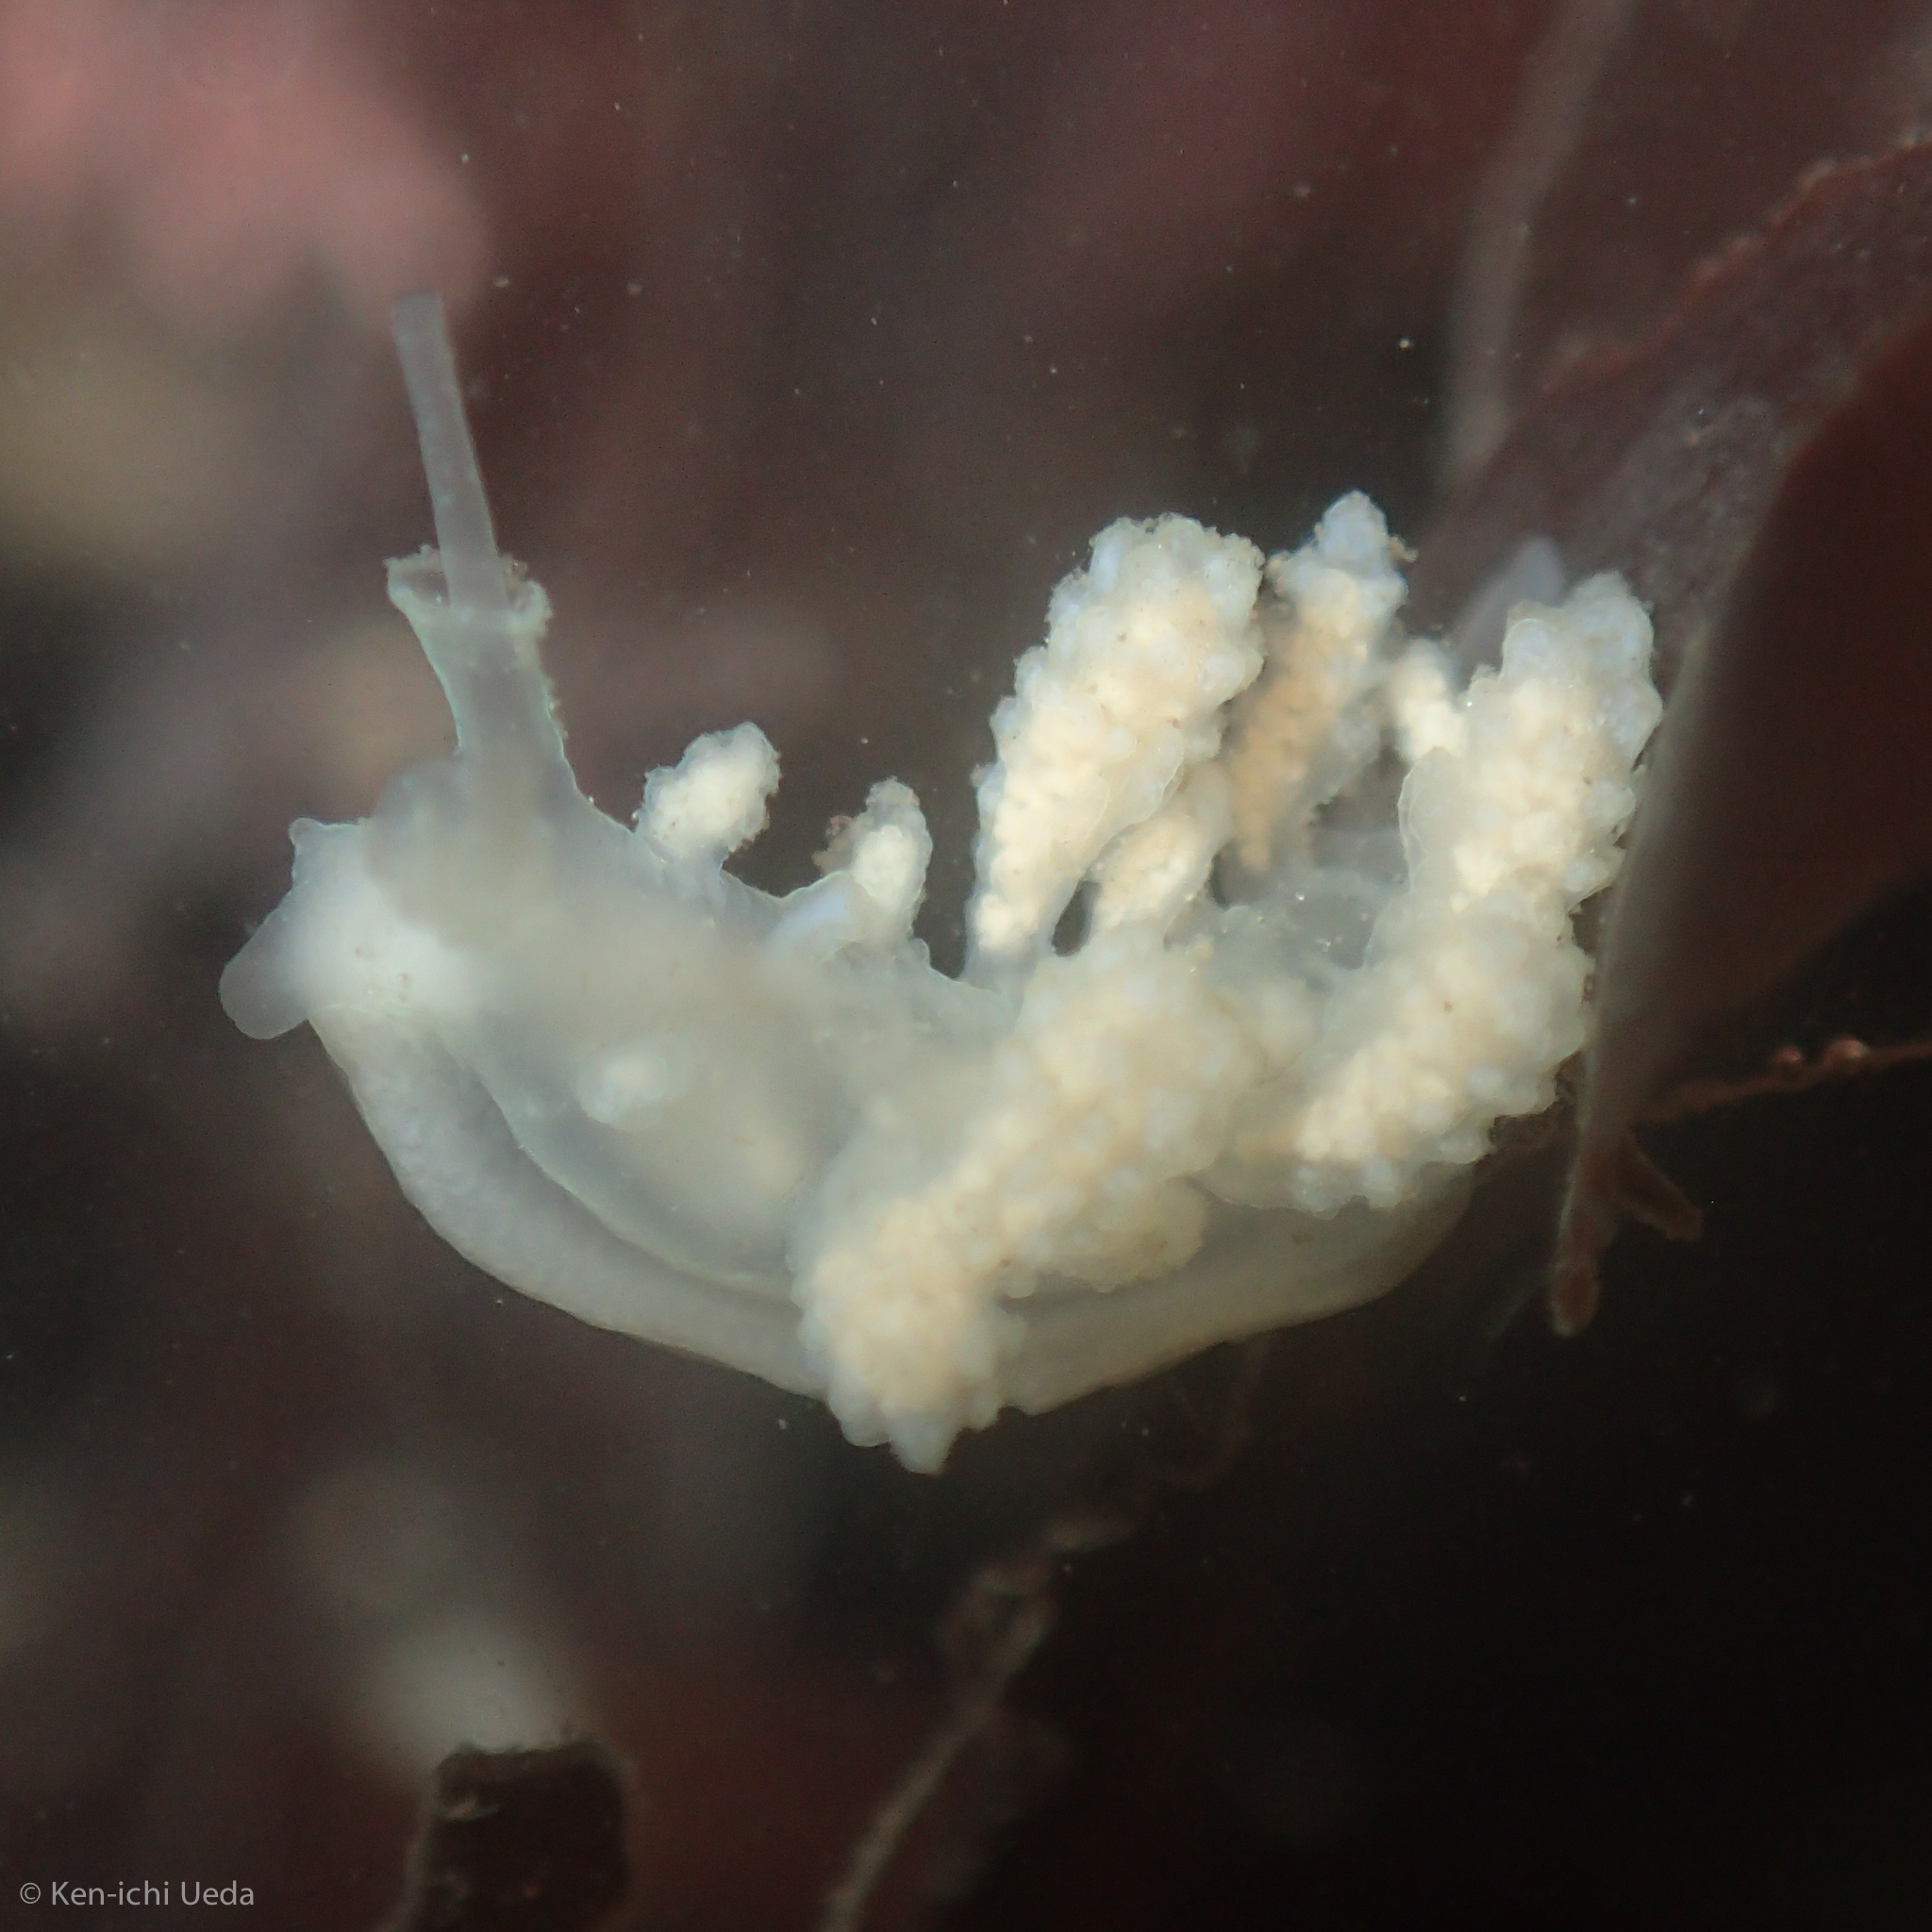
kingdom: Animalia
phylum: Mollusca
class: Gastropoda
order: Nudibranchia
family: Dotidae
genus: Doto
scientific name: Doto amyra
